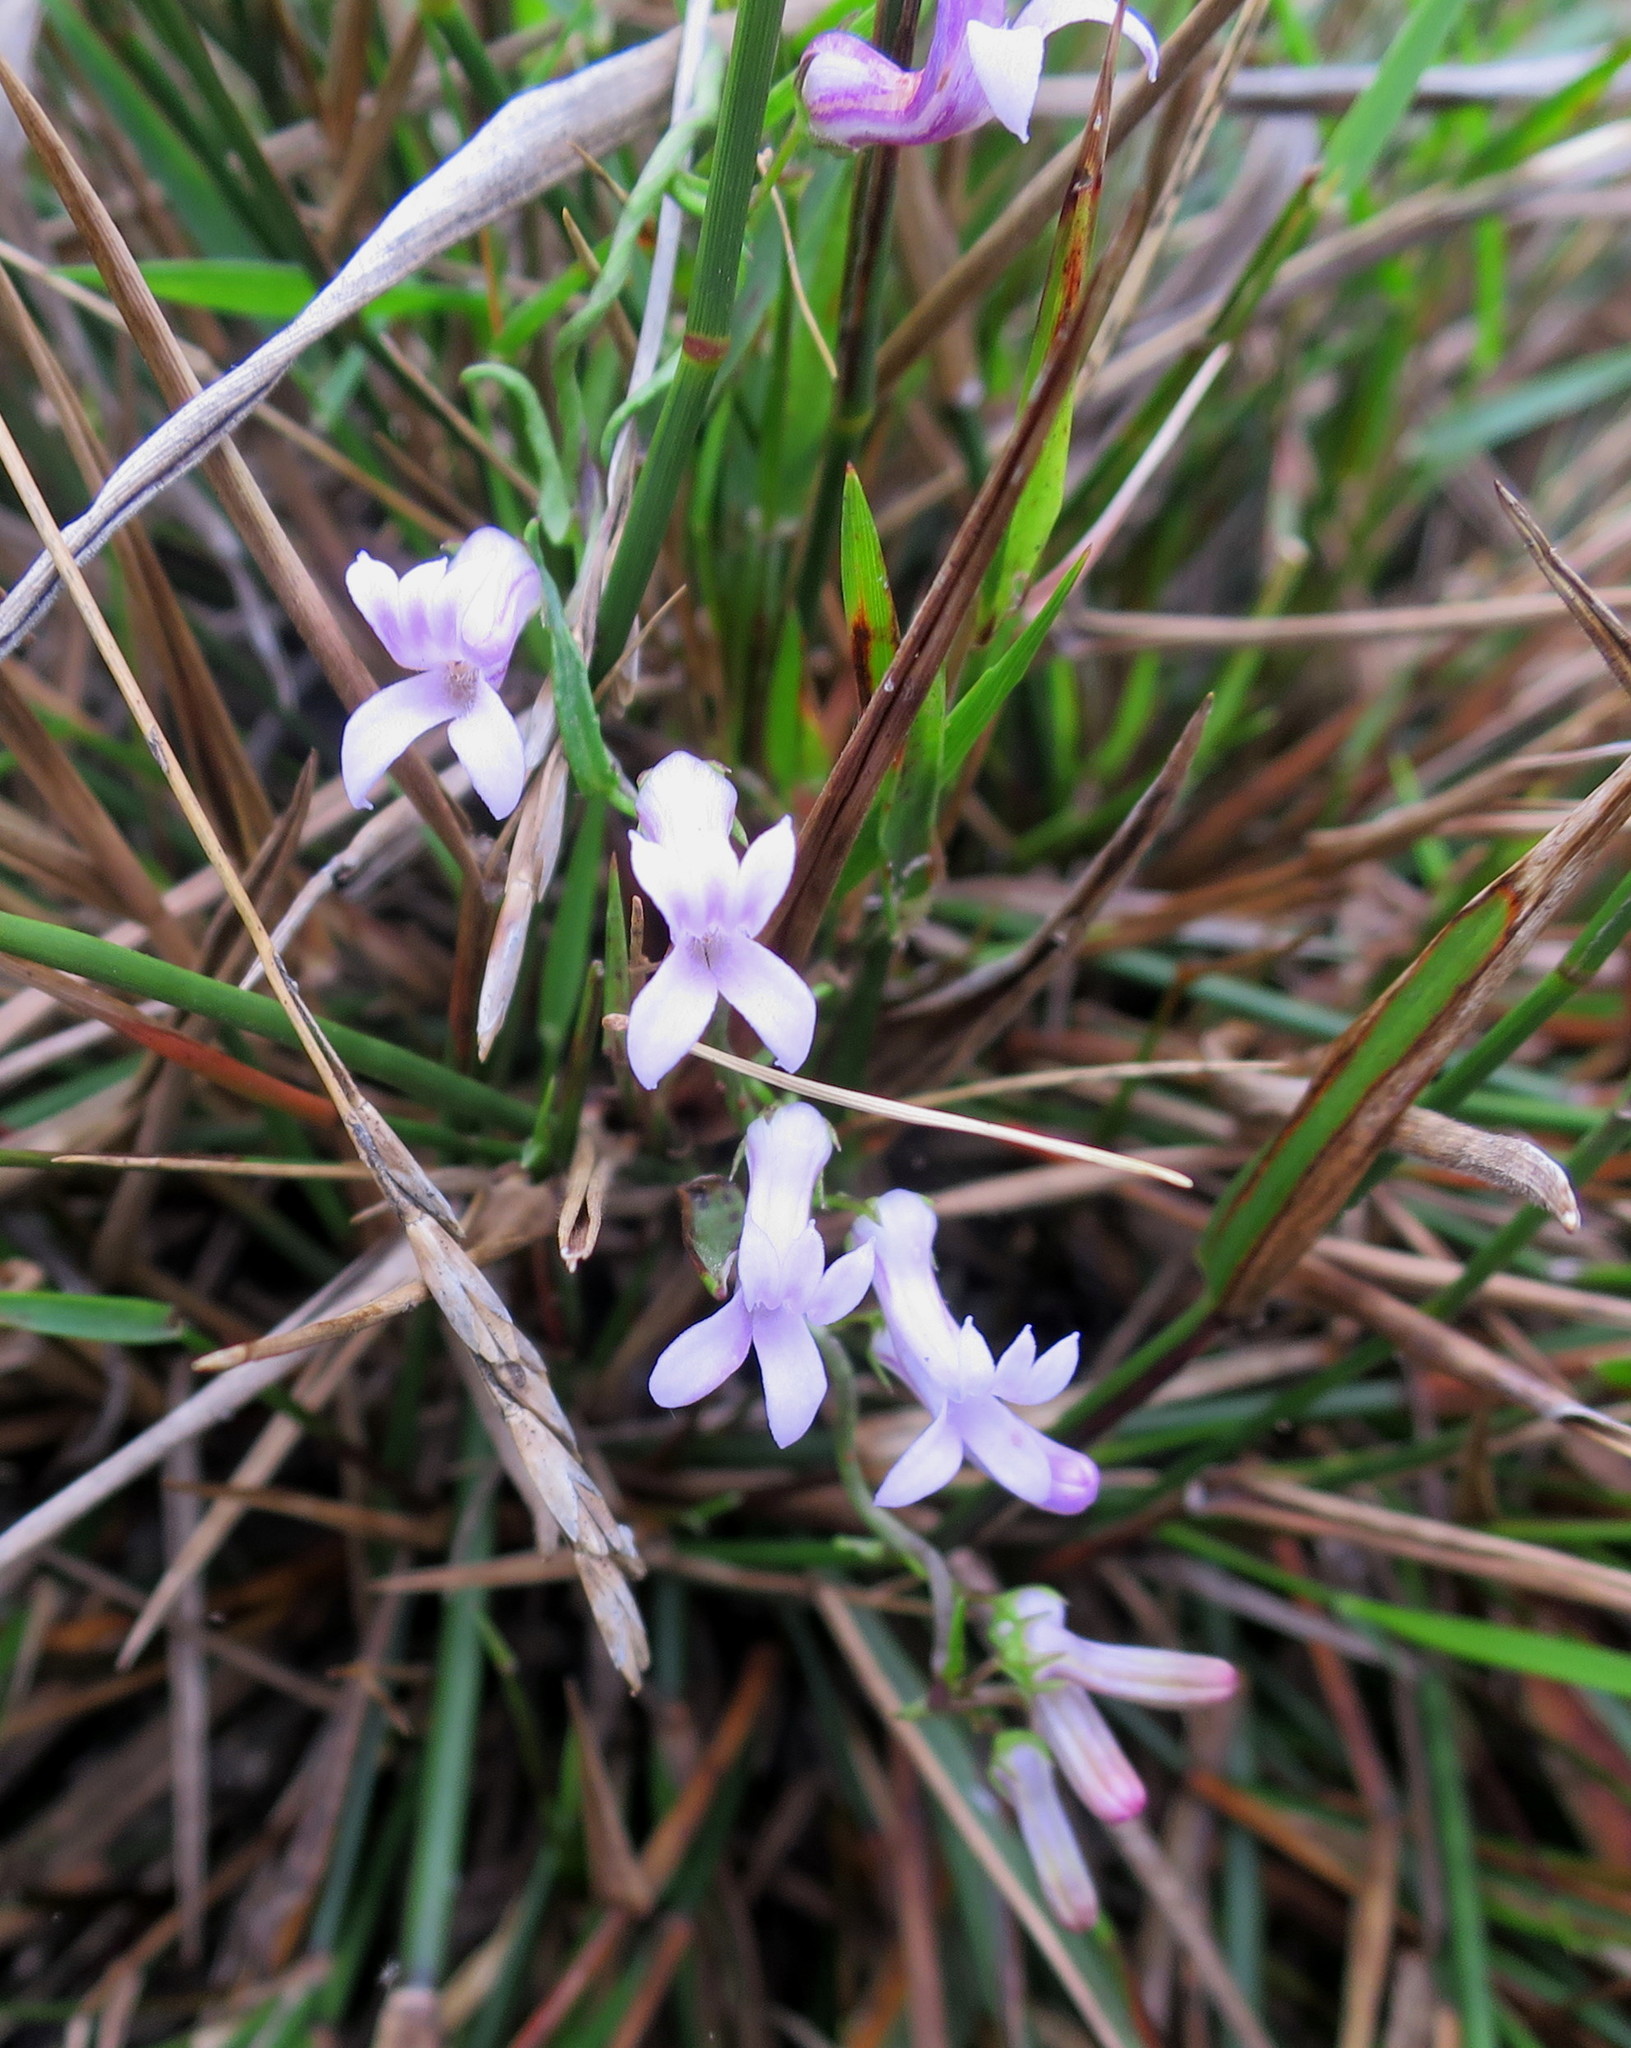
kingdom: Plantae
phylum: Tracheophyta
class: Magnoliopsida
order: Asterales
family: Campanulaceae
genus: Cyphia
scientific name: Cyphia digitata
